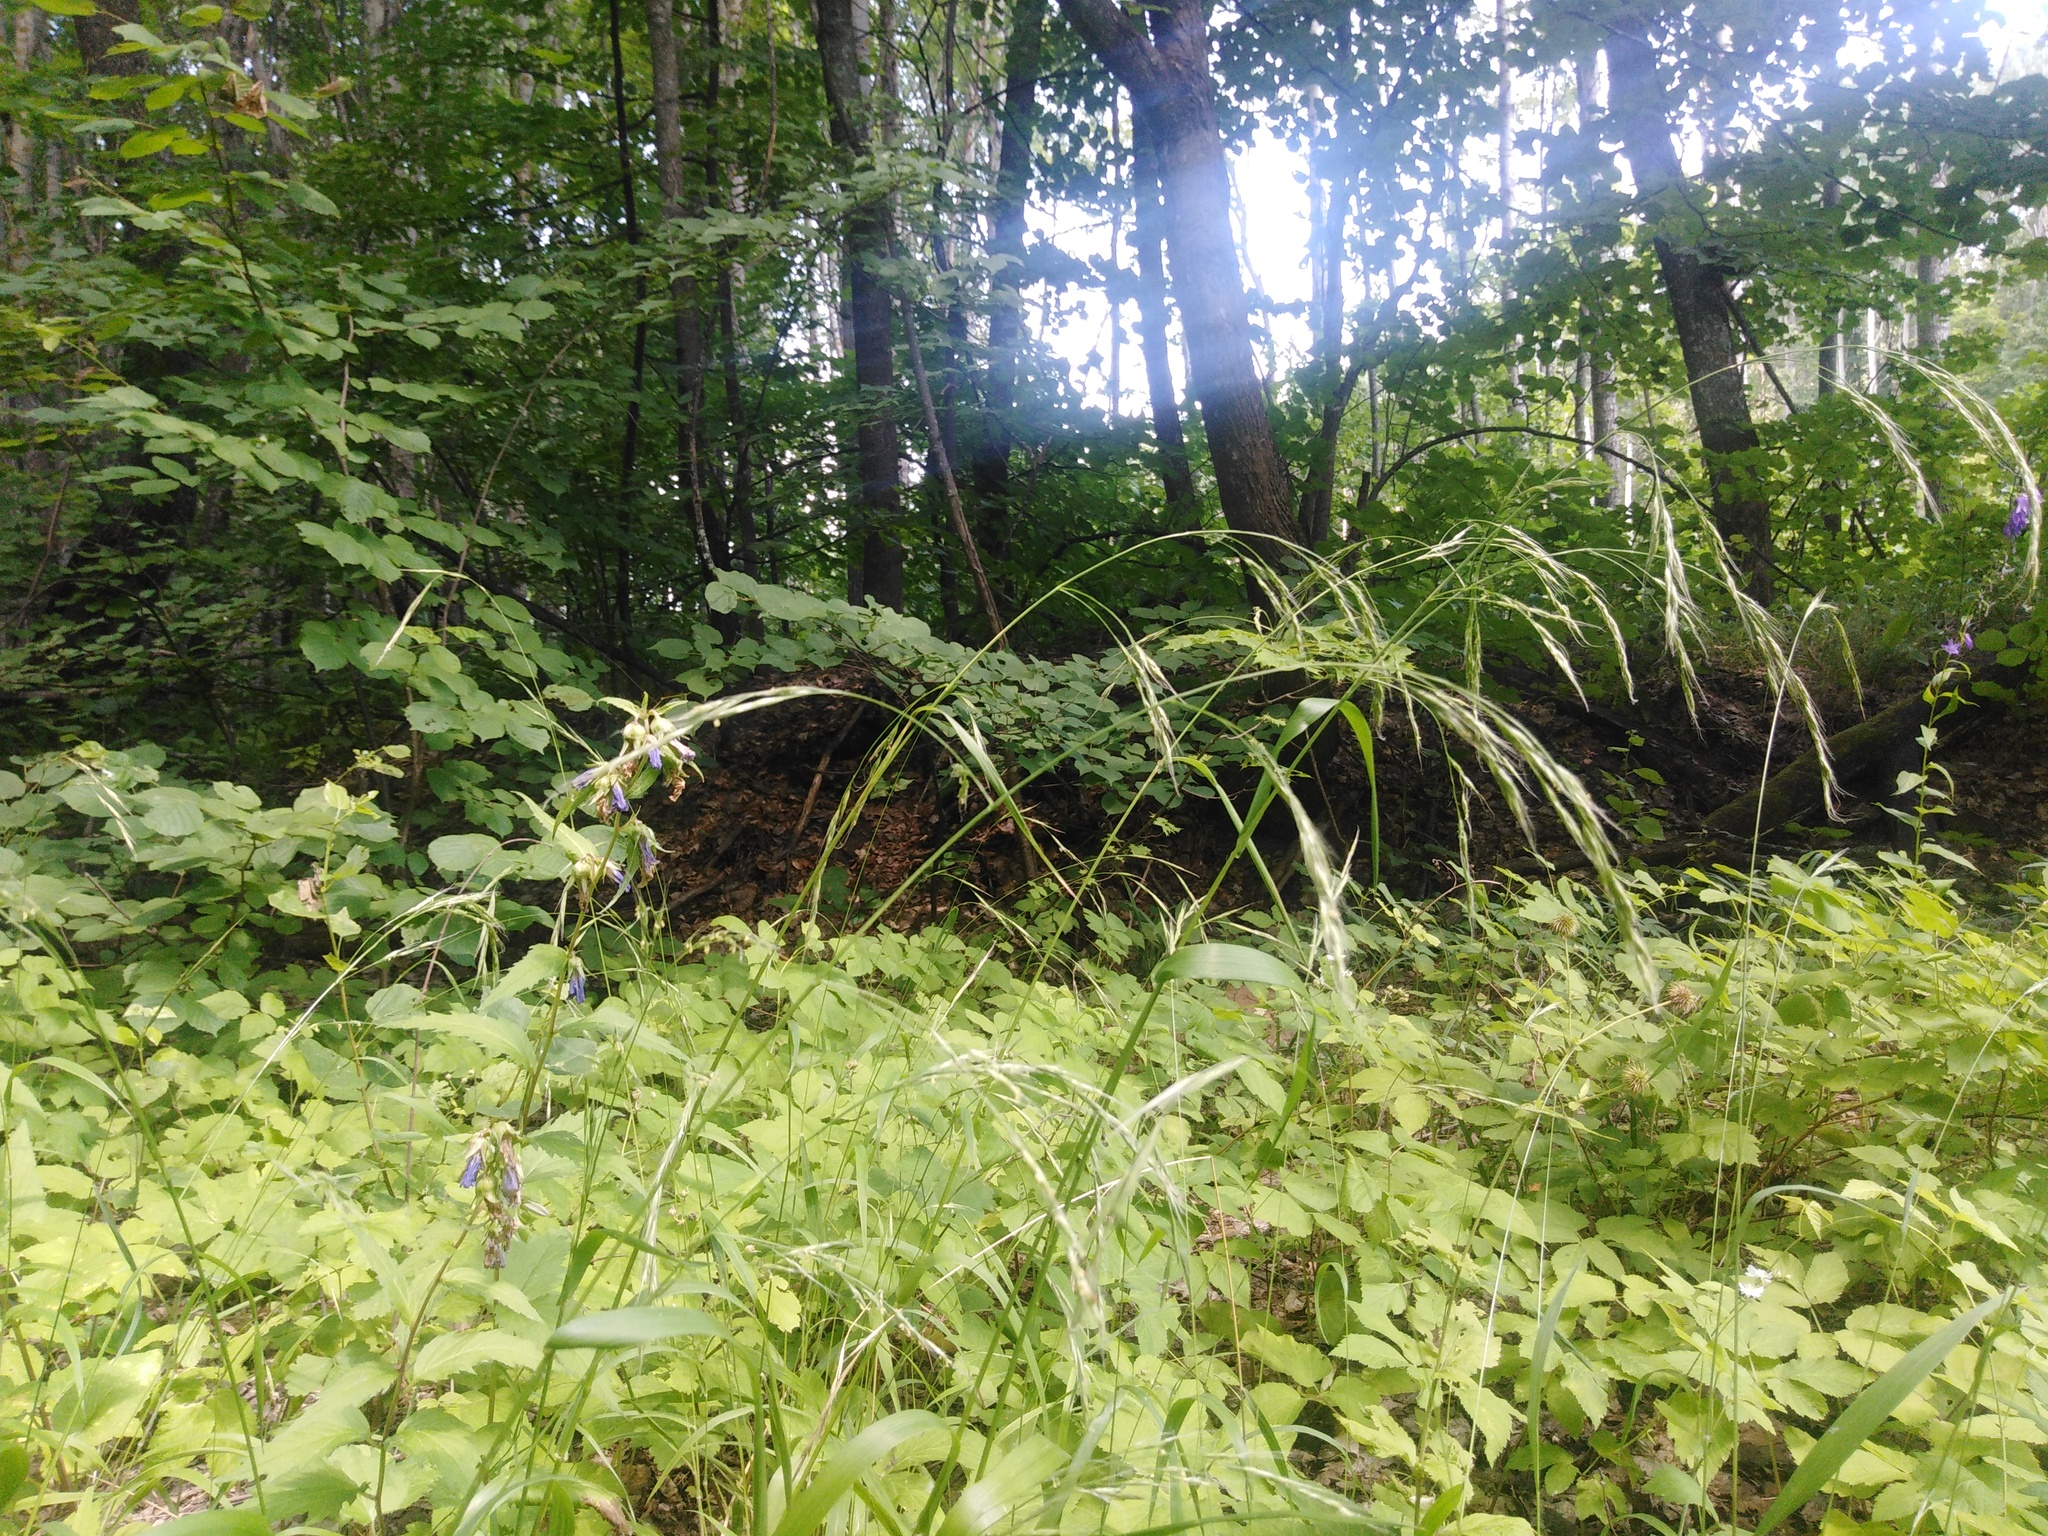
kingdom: Plantae
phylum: Tracheophyta
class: Liliopsida
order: Poales
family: Poaceae
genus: Lolium
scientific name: Lolium giganteum
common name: Giant fescue
